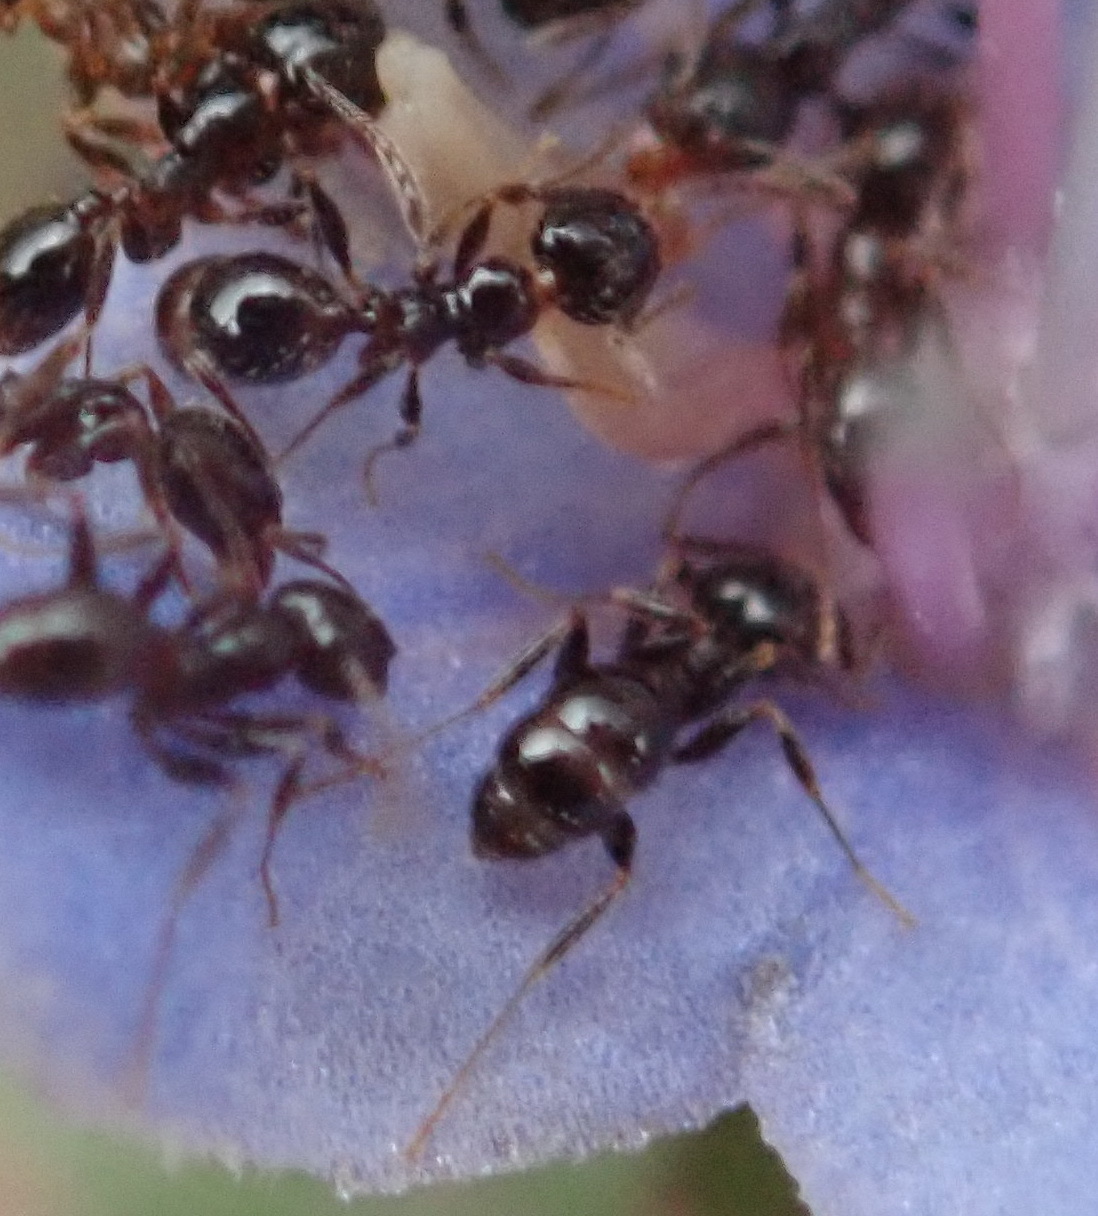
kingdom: Animalia
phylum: Arthropoda
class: Insecta
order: Hymenoptera
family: Formicidae
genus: Pheidole
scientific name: Pheidole foreli
